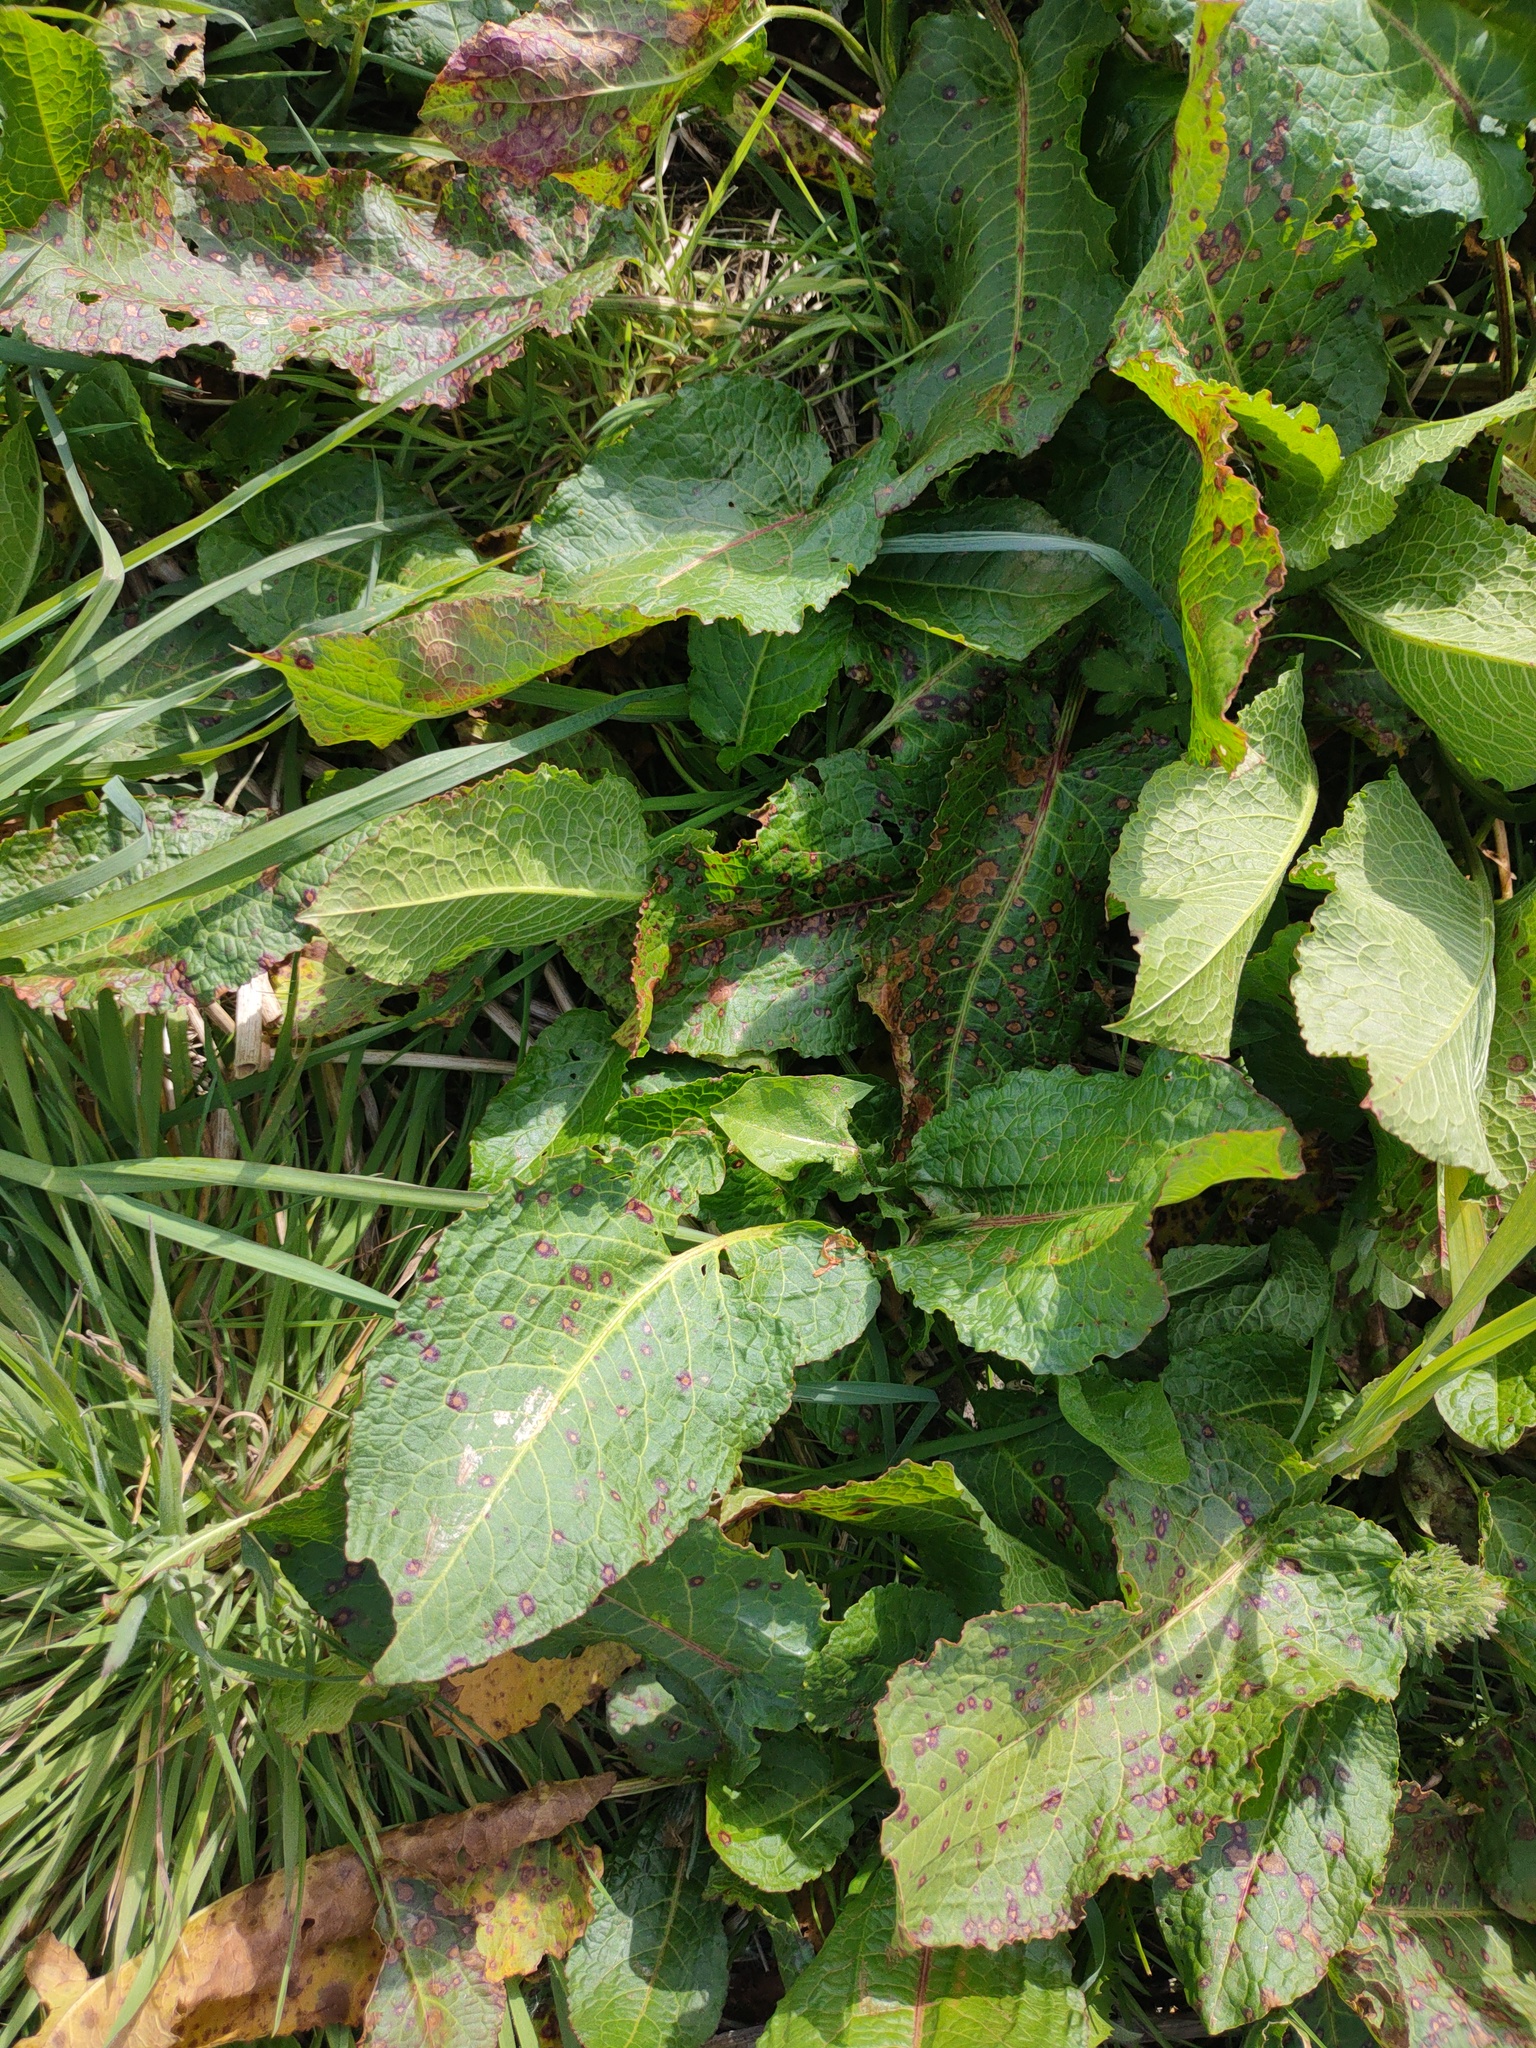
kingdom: Plantae
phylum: Tracheophyta
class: Magnoliopsida
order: Caryophyllales
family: Polygonaceae
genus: Rumex
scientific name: Rumex obtusifolius
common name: Bitter dock
